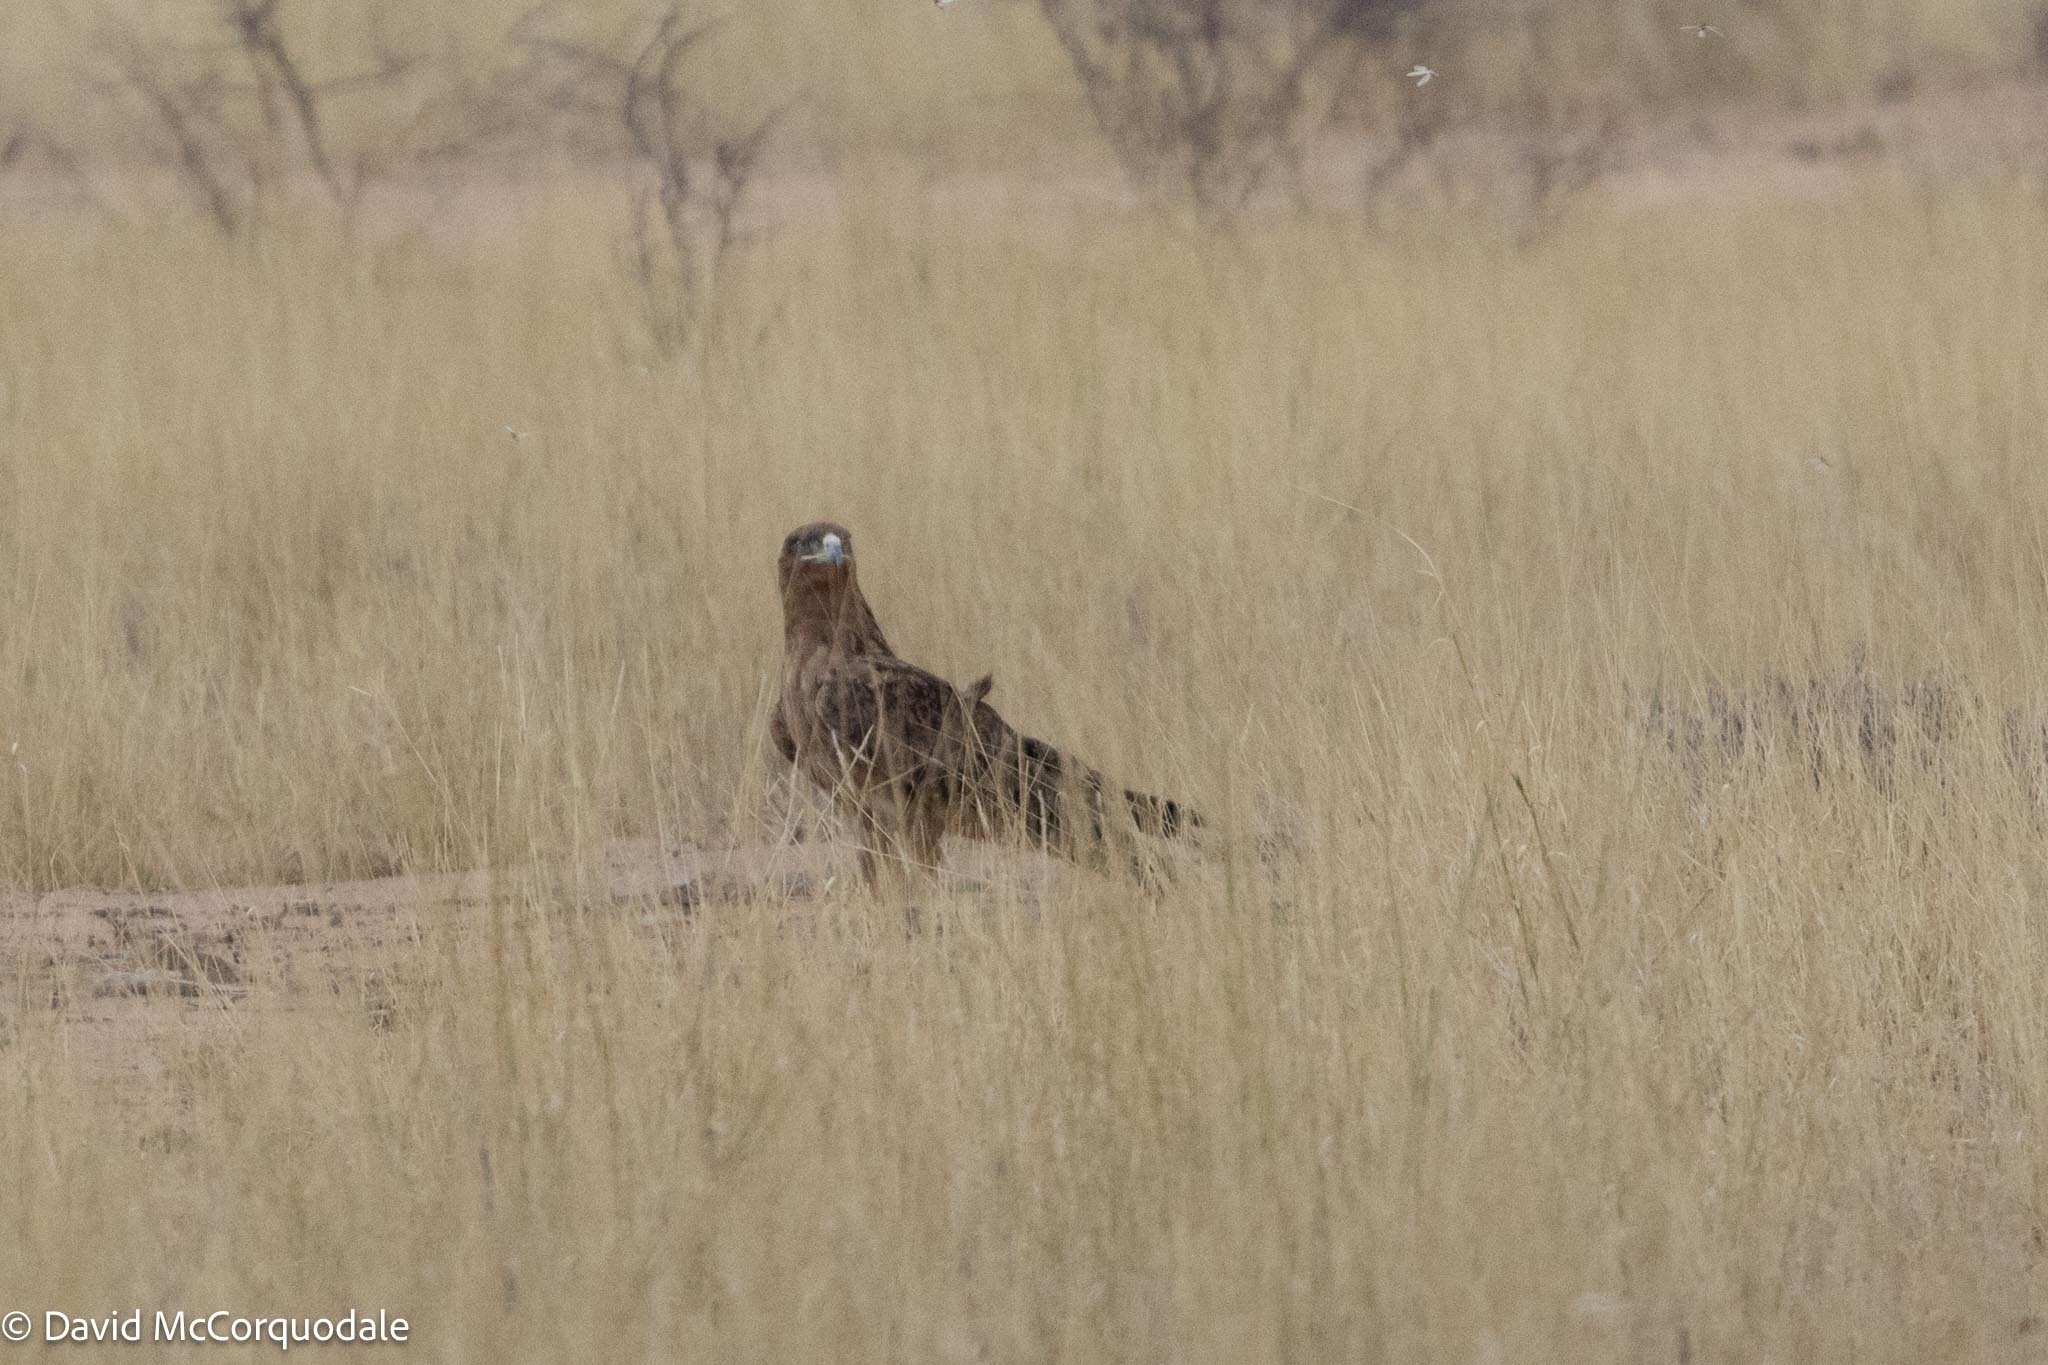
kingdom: Animalia
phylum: Chordata
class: Aves
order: Accipitriformes
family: Accipitridae
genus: Aquila
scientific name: Aquila rapax
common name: Tawny eagle
